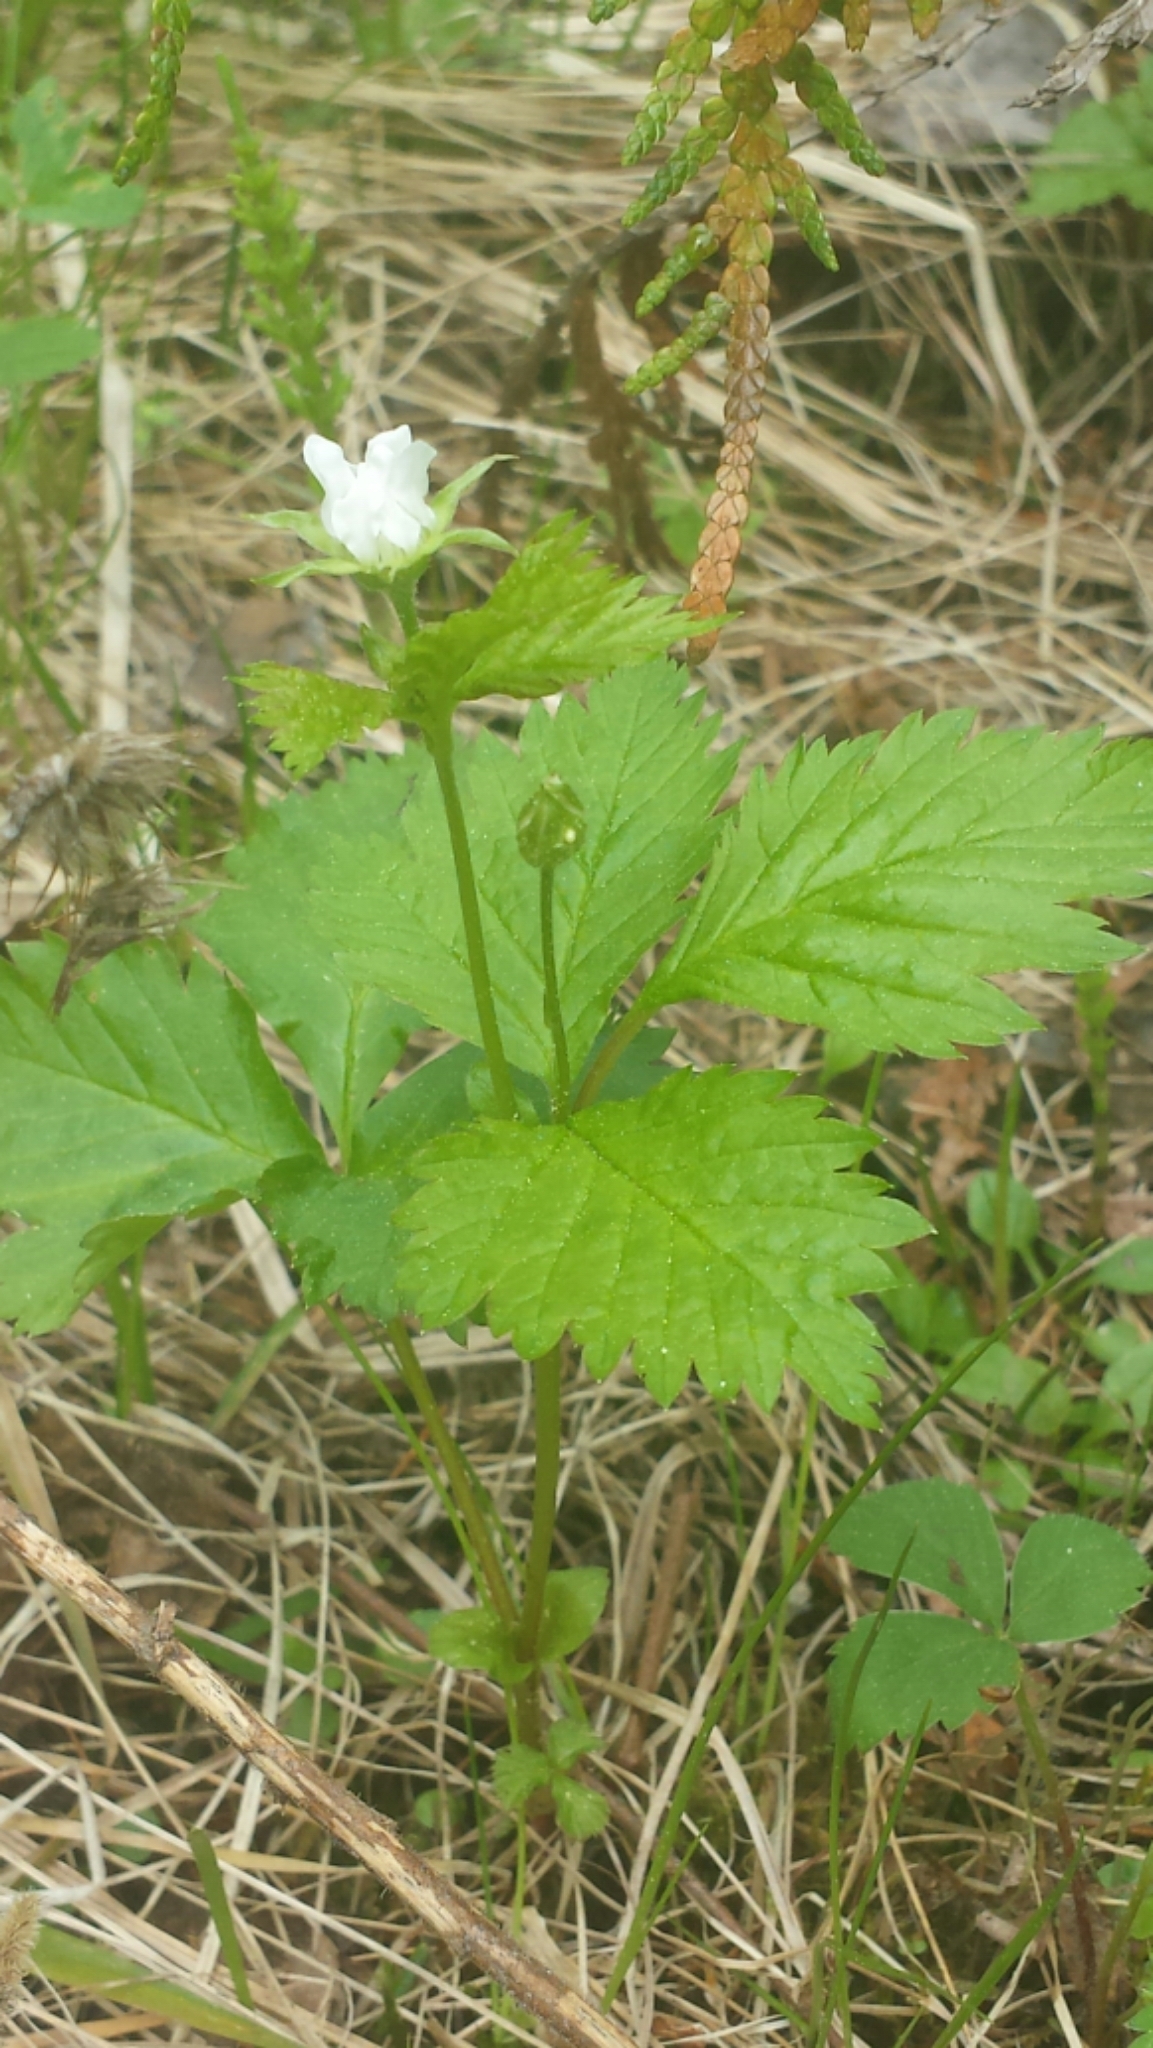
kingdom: Plantae
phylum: Tracheophyta
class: Magnoliopsida
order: Rosales
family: Rosaceae
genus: Rubus
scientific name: Rubus pubescens
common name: Dwarf raspberry
